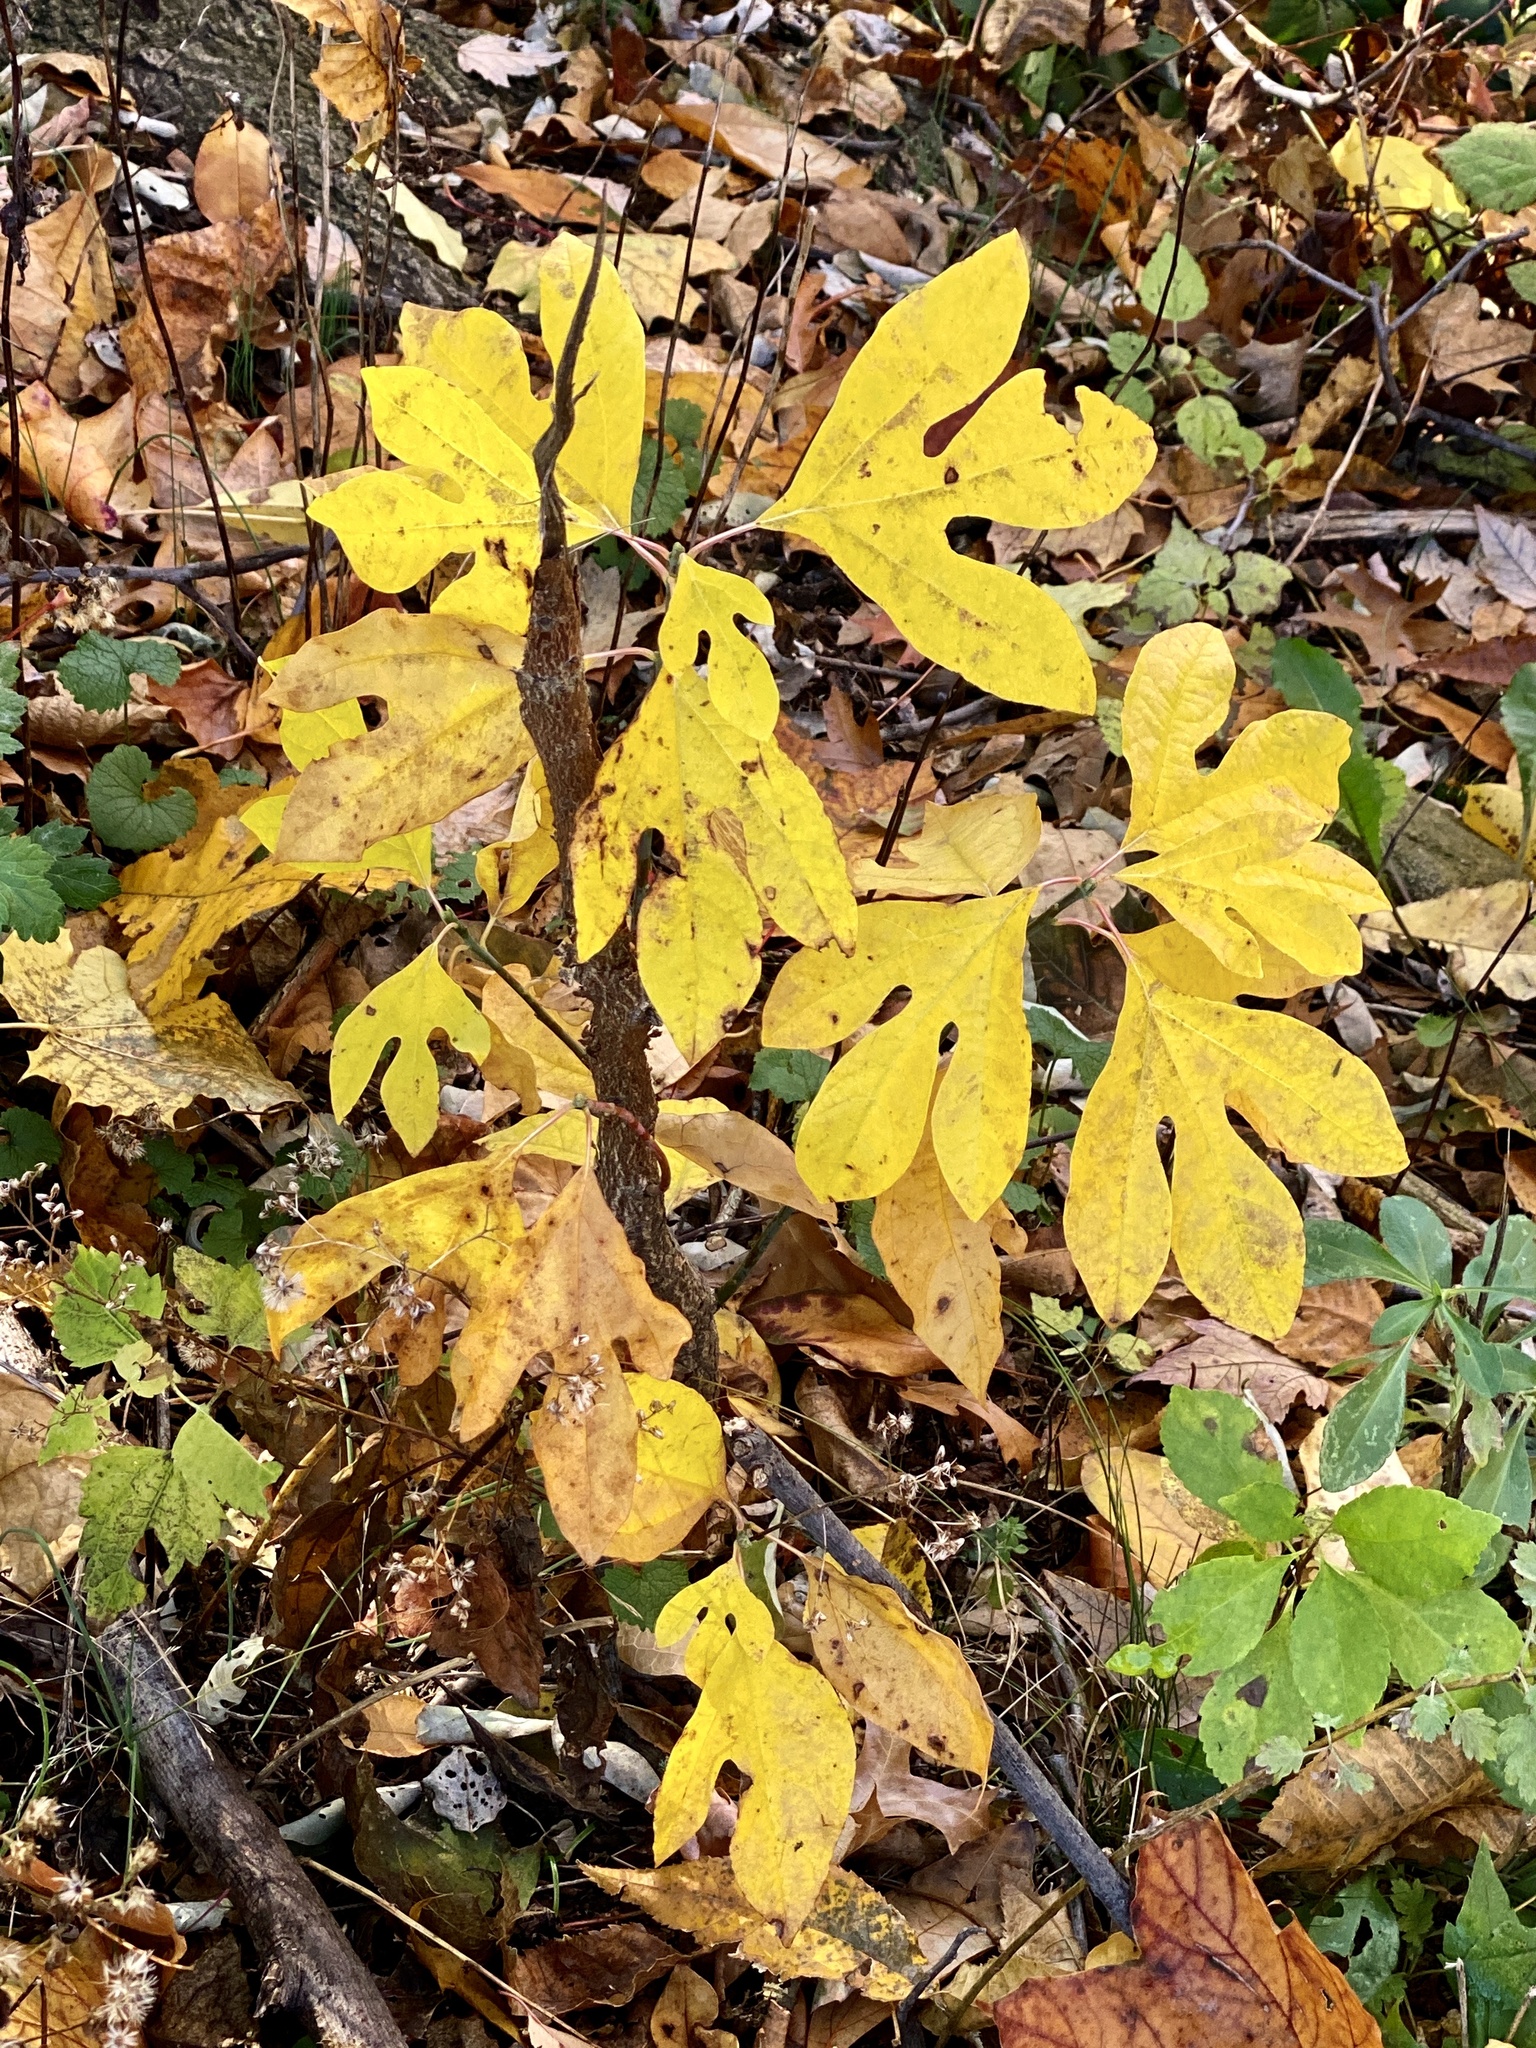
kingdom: Plantae
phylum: Tracheophyta
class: Magnoliopsida
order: Laurales
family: Lauraceae
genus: Sassafras
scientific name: Sassafras albidum
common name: Sassafras
